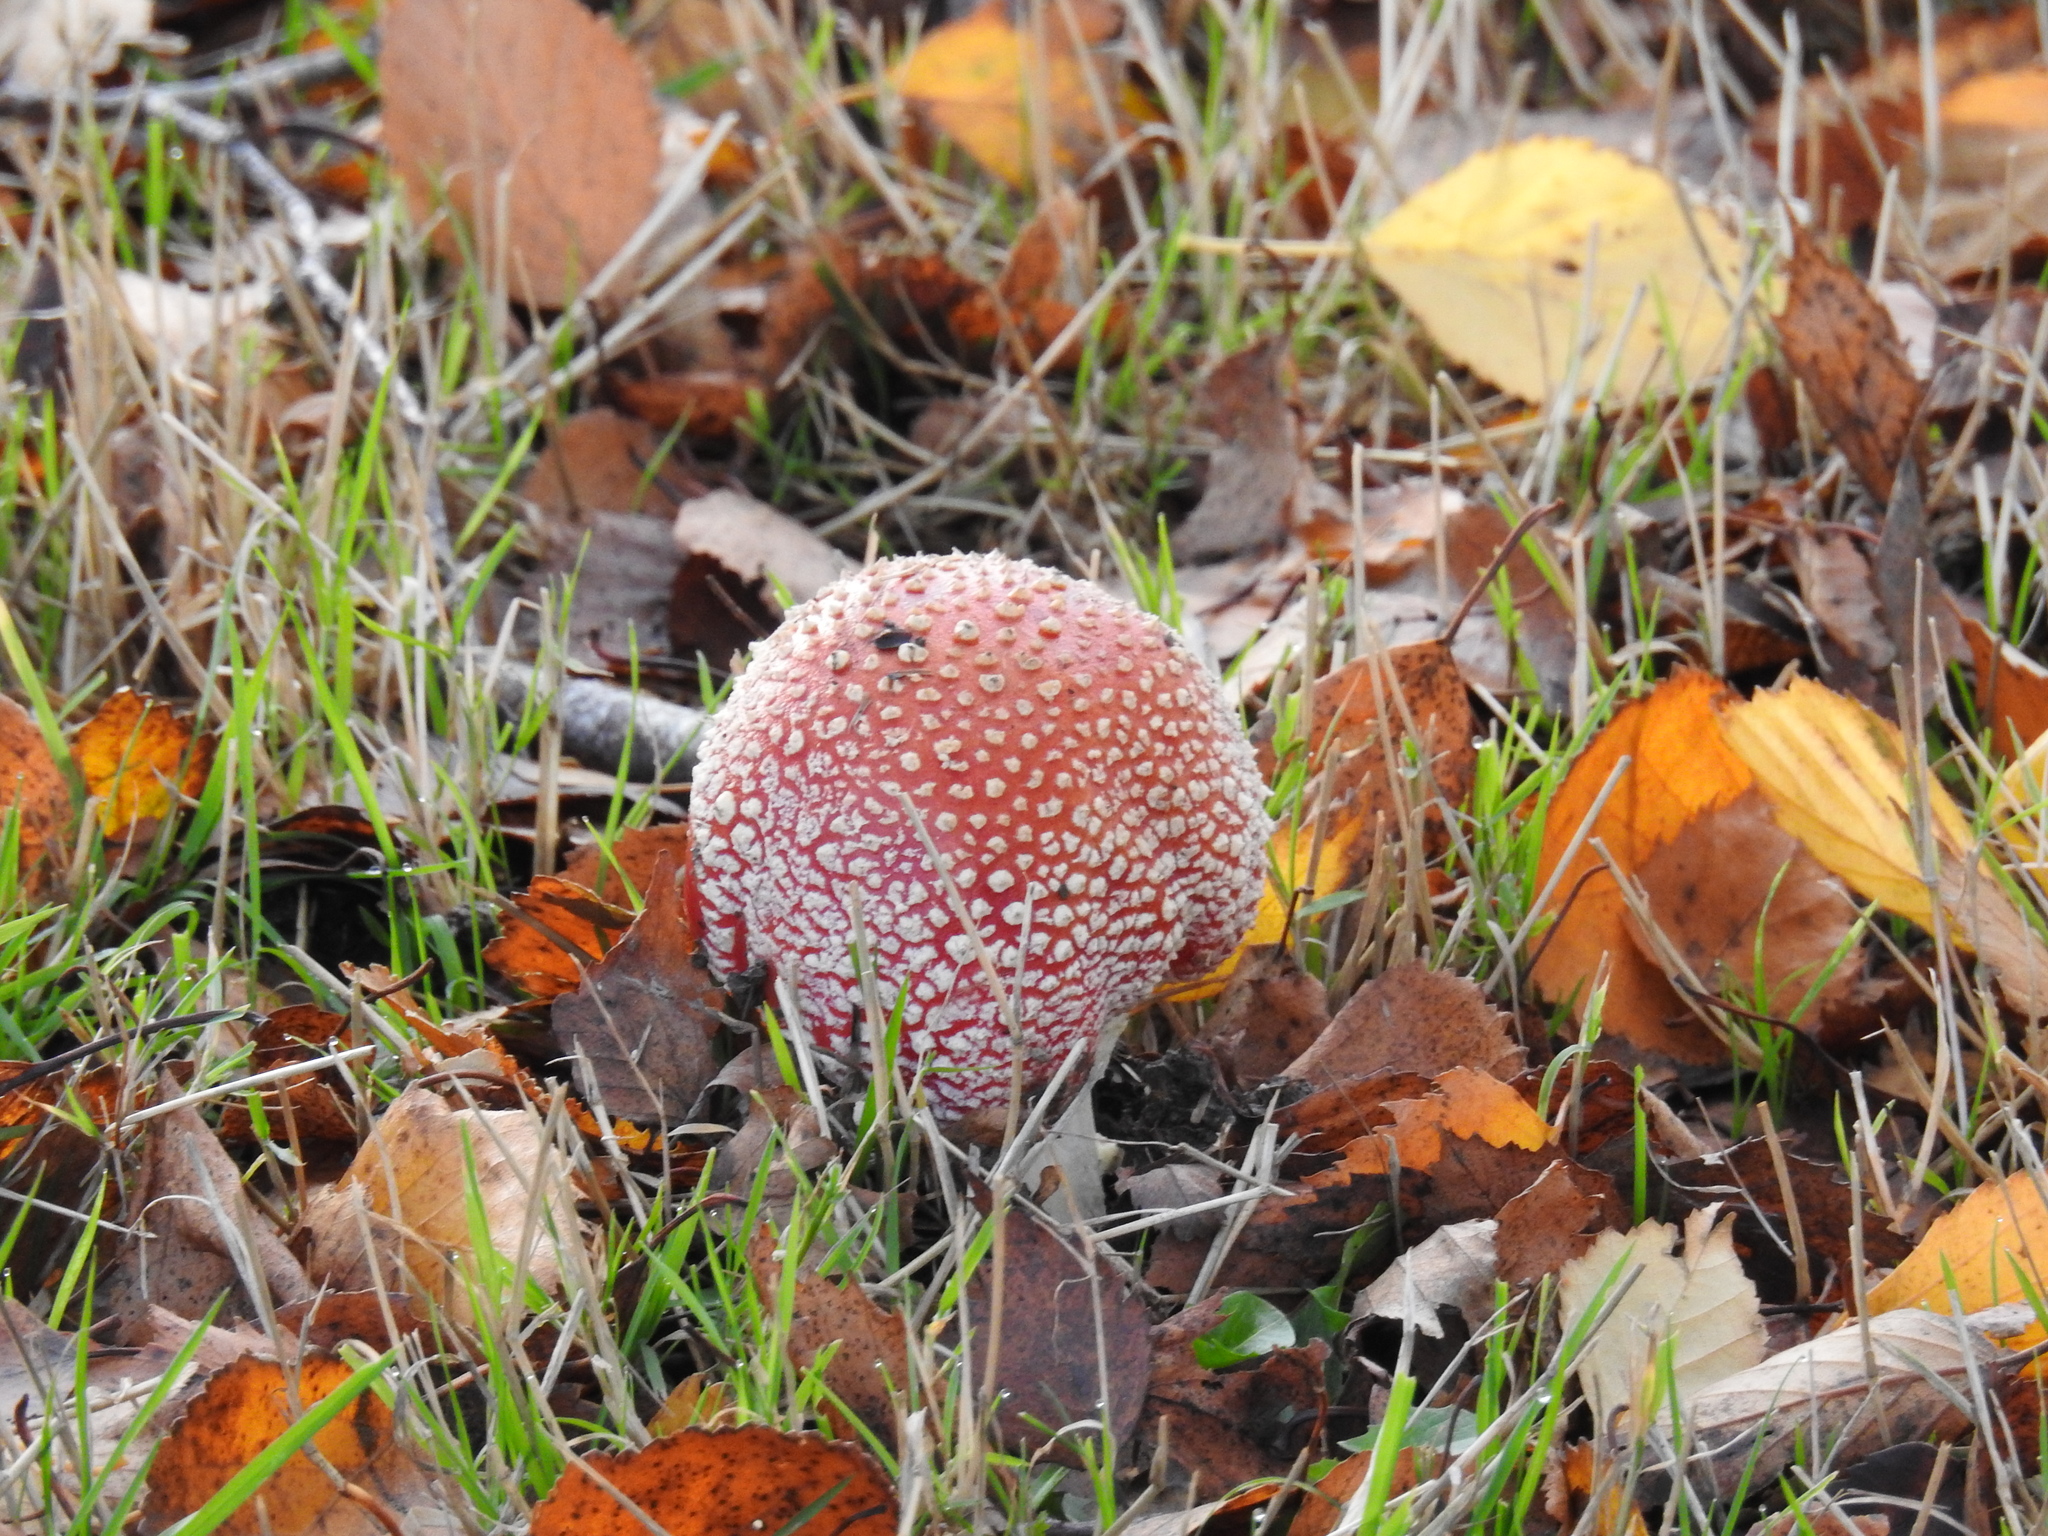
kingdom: Fungi
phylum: Basidiomycota
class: Agaricomycetes
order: Agaricales
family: Amanitaceae
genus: Amanita
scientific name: Amanita muscaria
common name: Fly agaric
